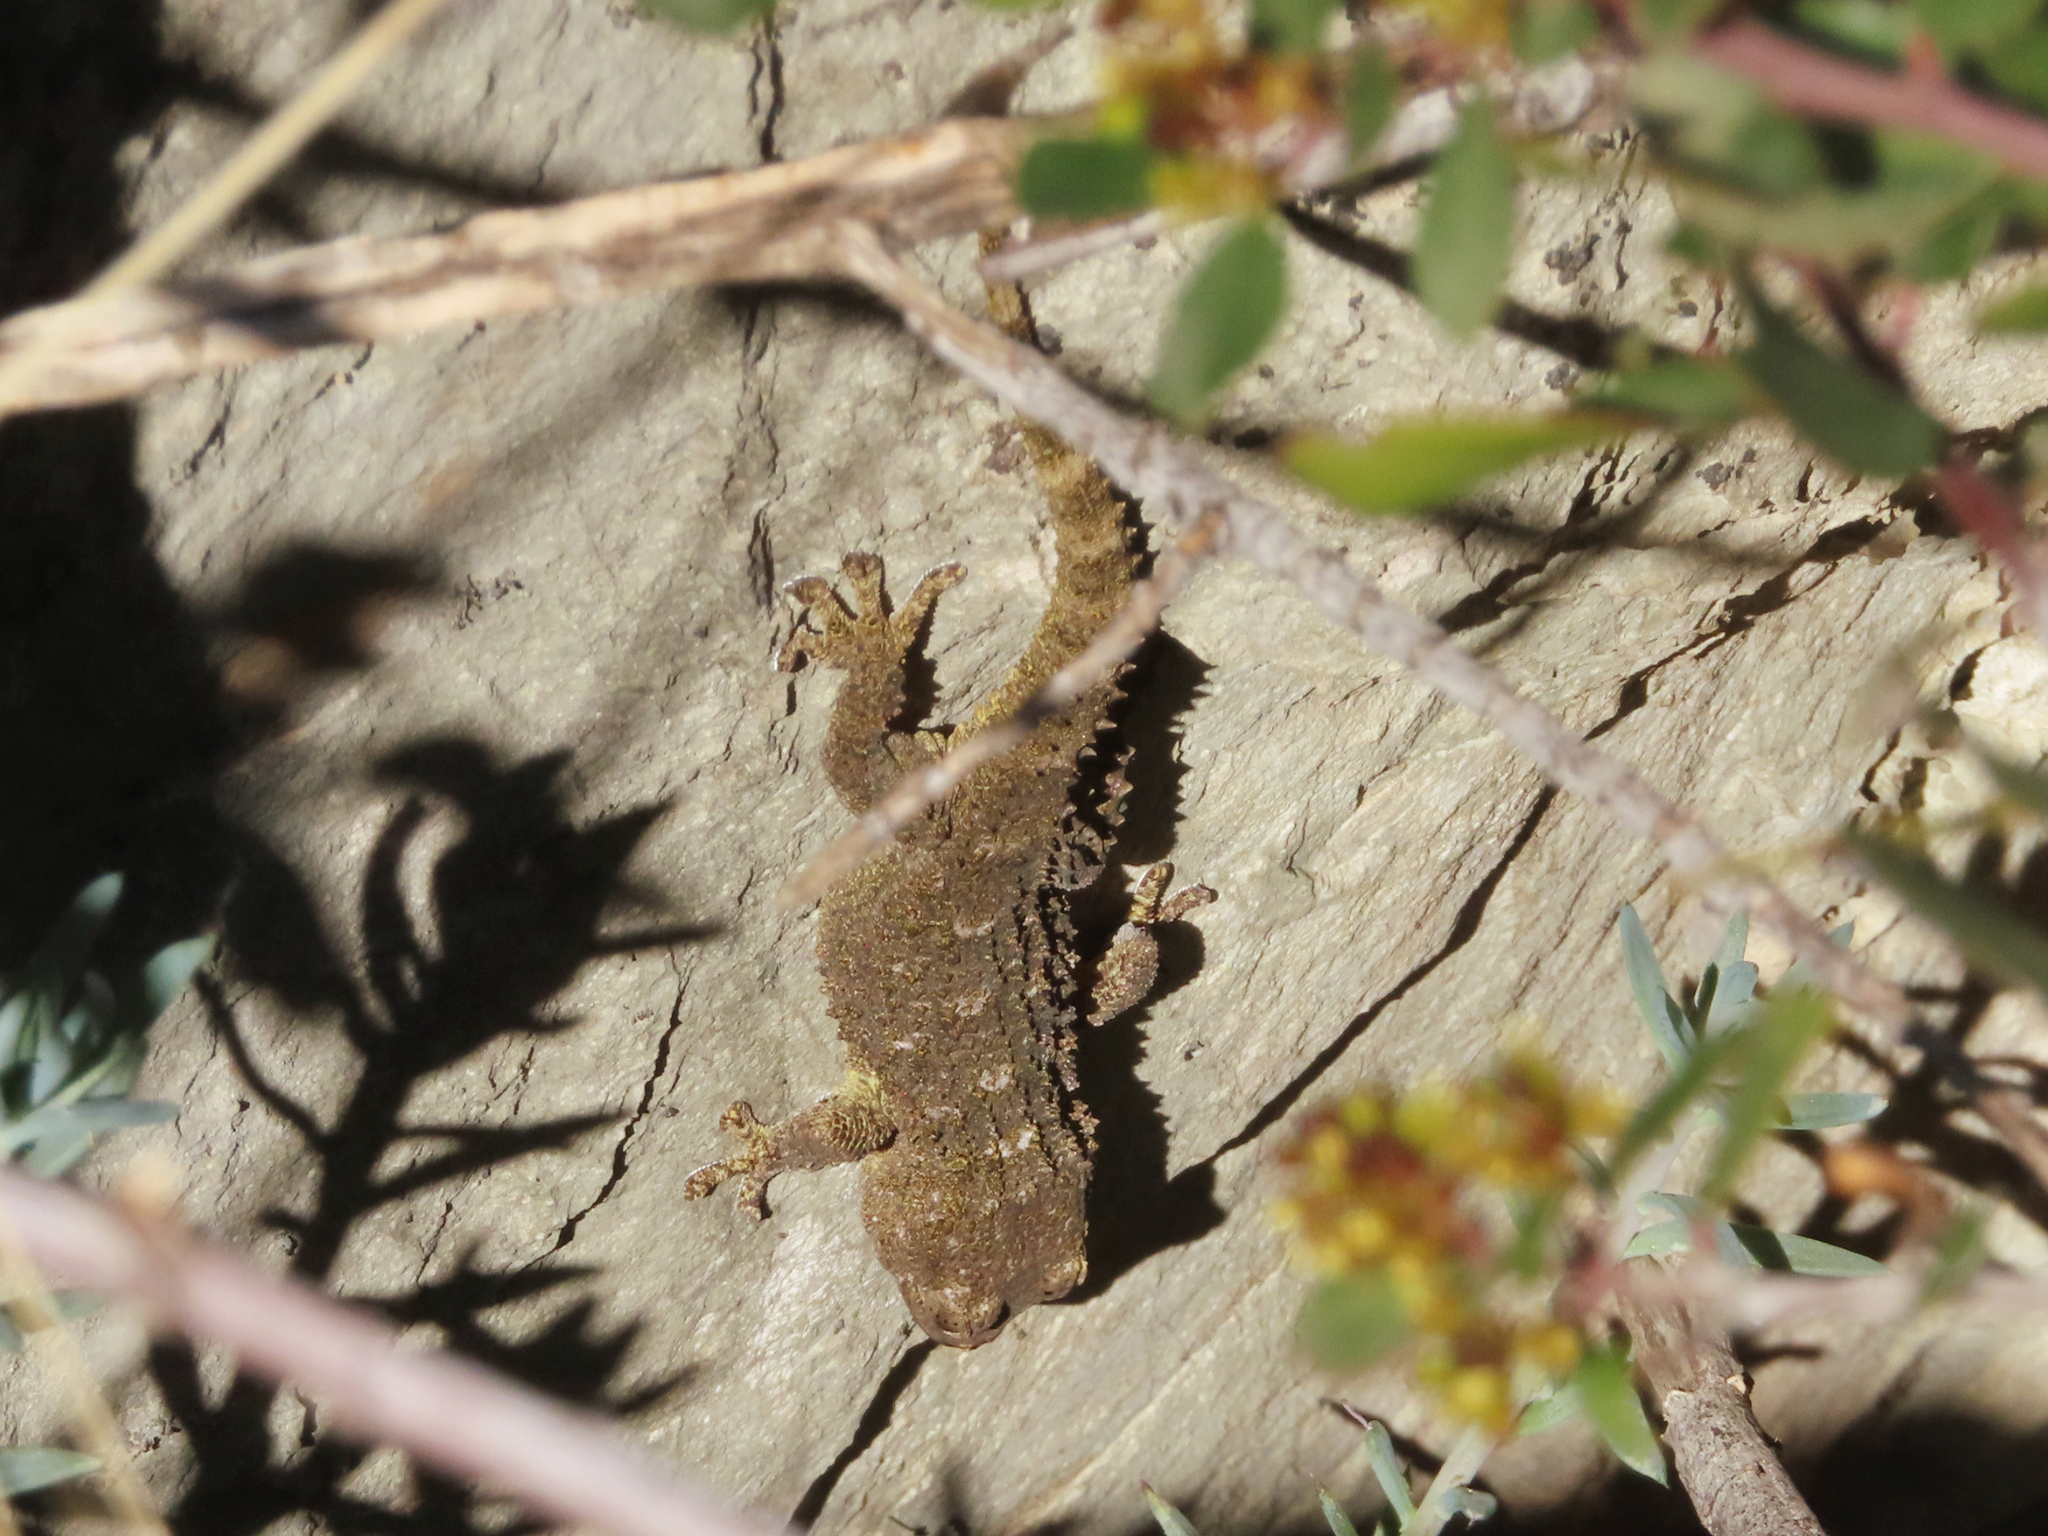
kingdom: Animalia
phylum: Chordata
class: Squamata
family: Phyllodactylidae
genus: Tarentola
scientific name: Tarentola mauritanica
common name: Moorish gecko
